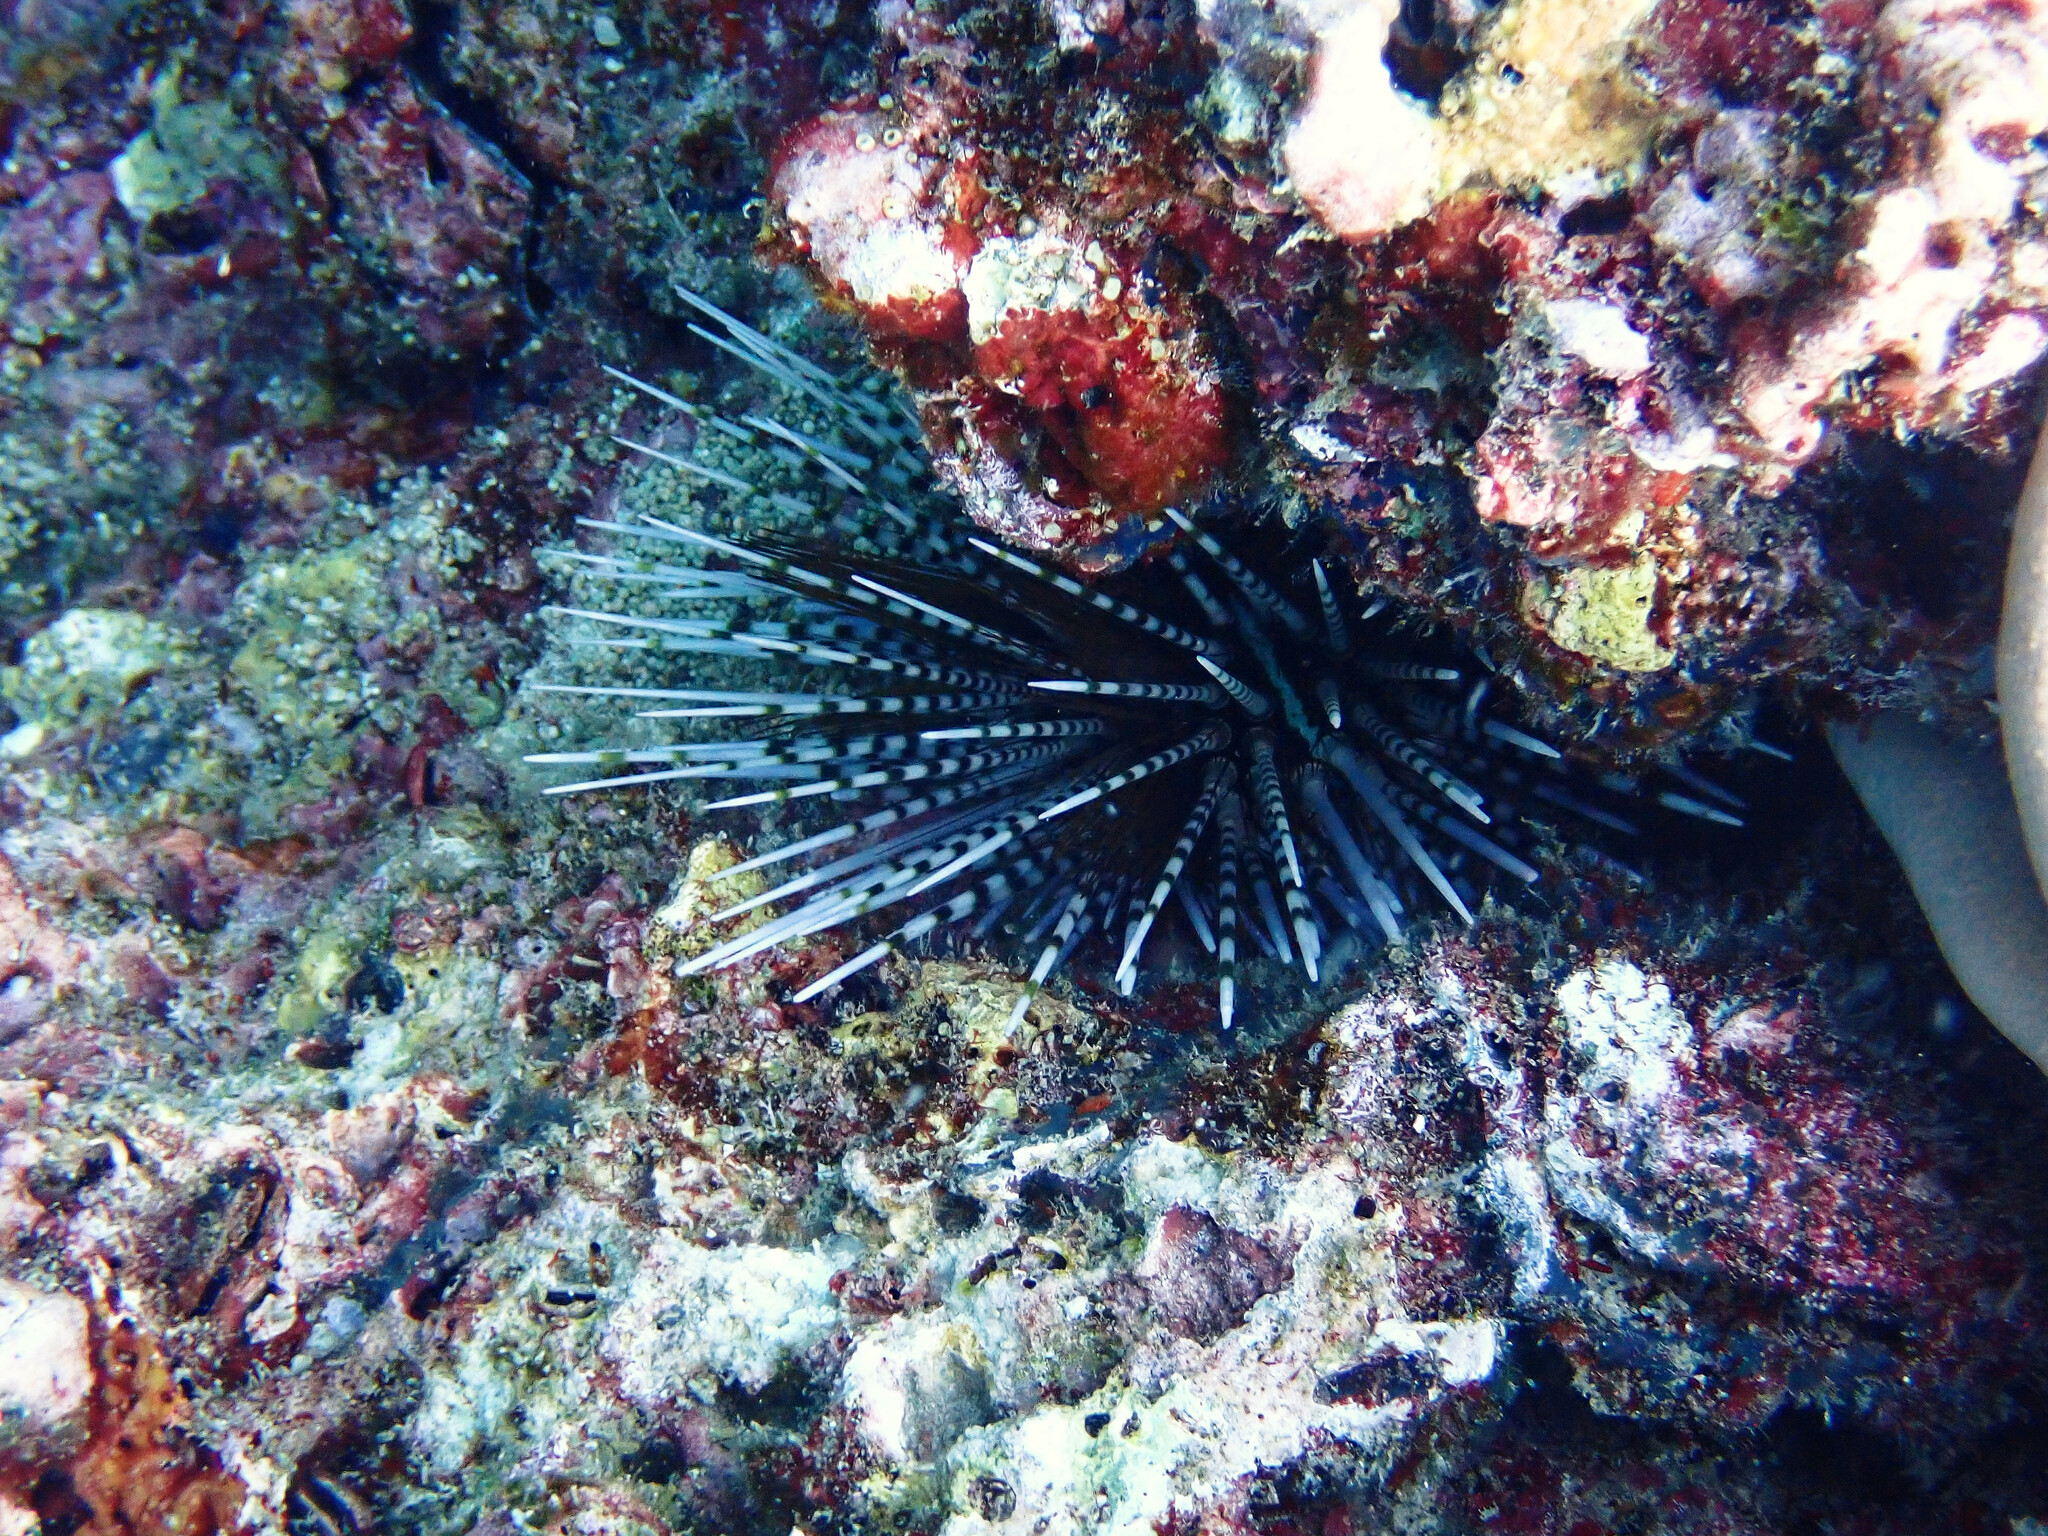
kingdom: Animalia
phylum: Echinodermata
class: Echinoidea
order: Diadematoida
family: Diadematidae
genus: Echinothrix
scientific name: Echinothrix calamaris
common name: Banded sea urchin
